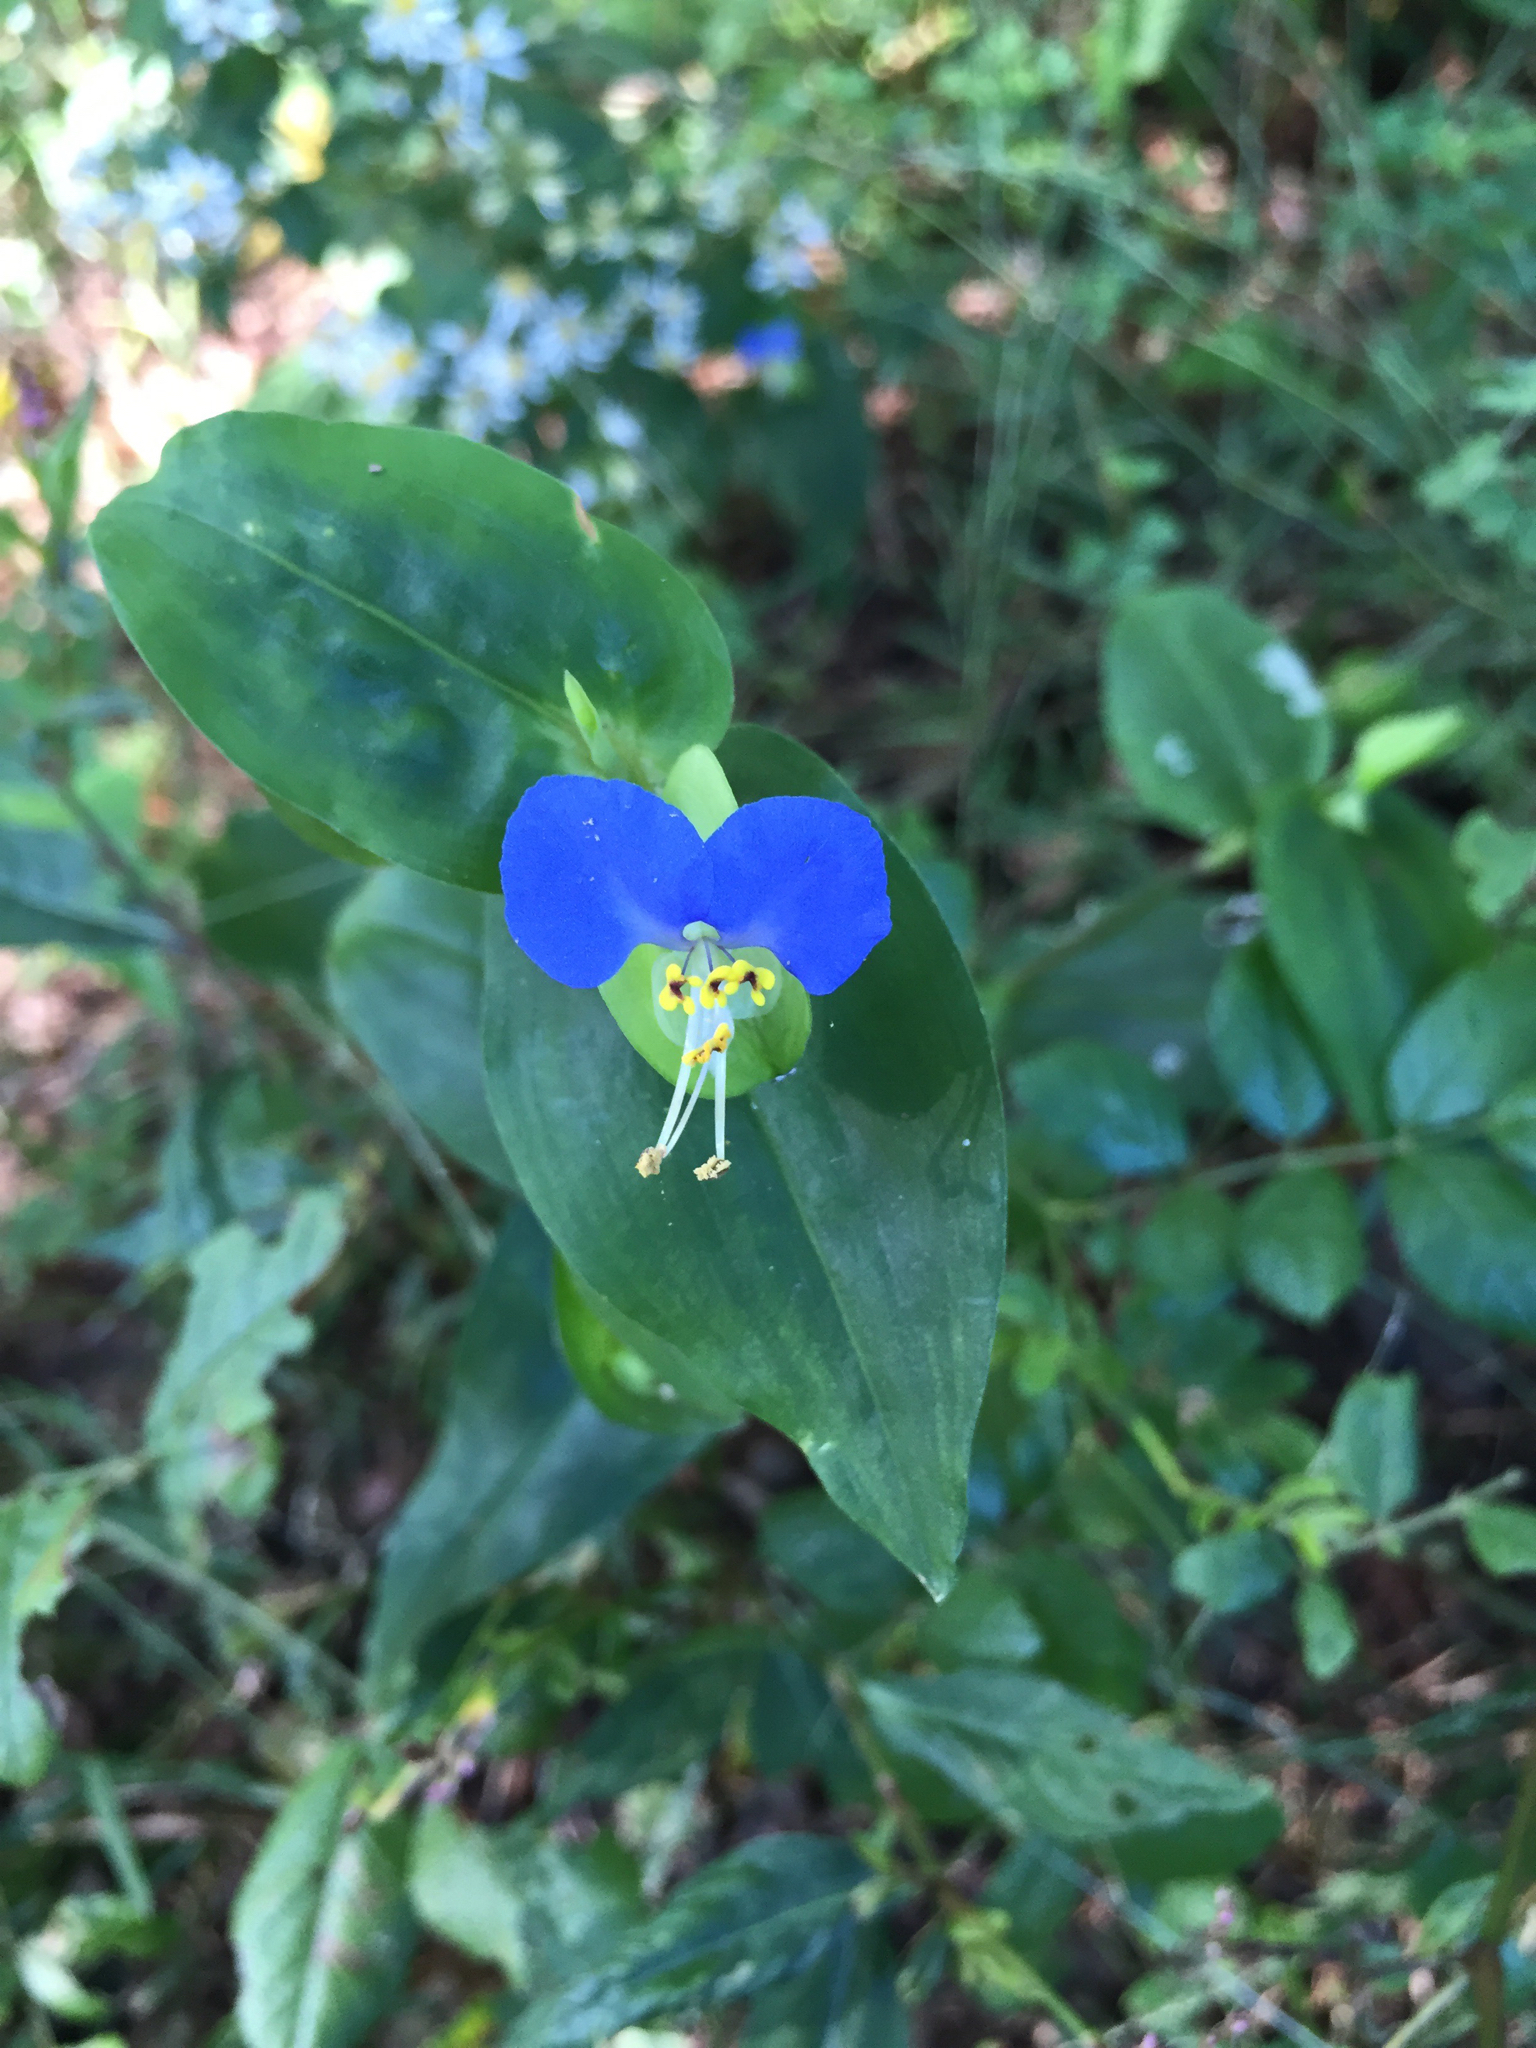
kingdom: Plantae
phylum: Tracheophyta
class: Liliopsida
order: Commelinales
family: Commelinaceae
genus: Commelina
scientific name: Commelina communis
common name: Asiatic dayflower
